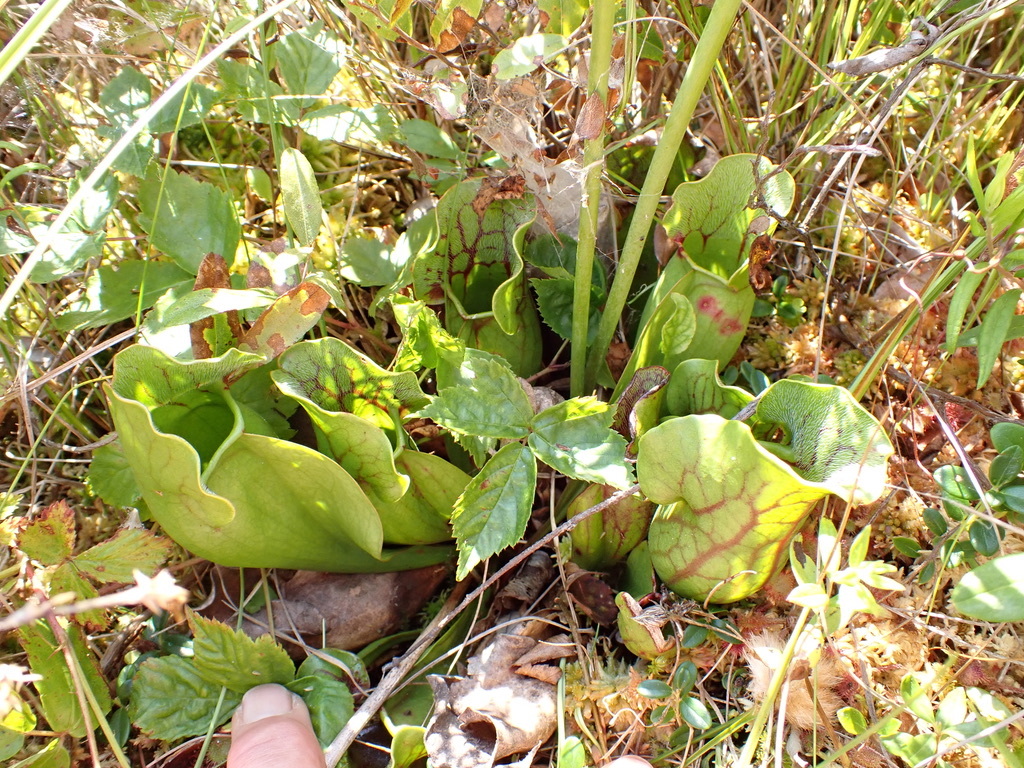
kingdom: Plantae
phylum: Tracheophyta
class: Magnoliopsida
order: Ericales
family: Sarraceniaceae
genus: Sarracenia
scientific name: Sarracenia purpurea
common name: Pitcherplant
